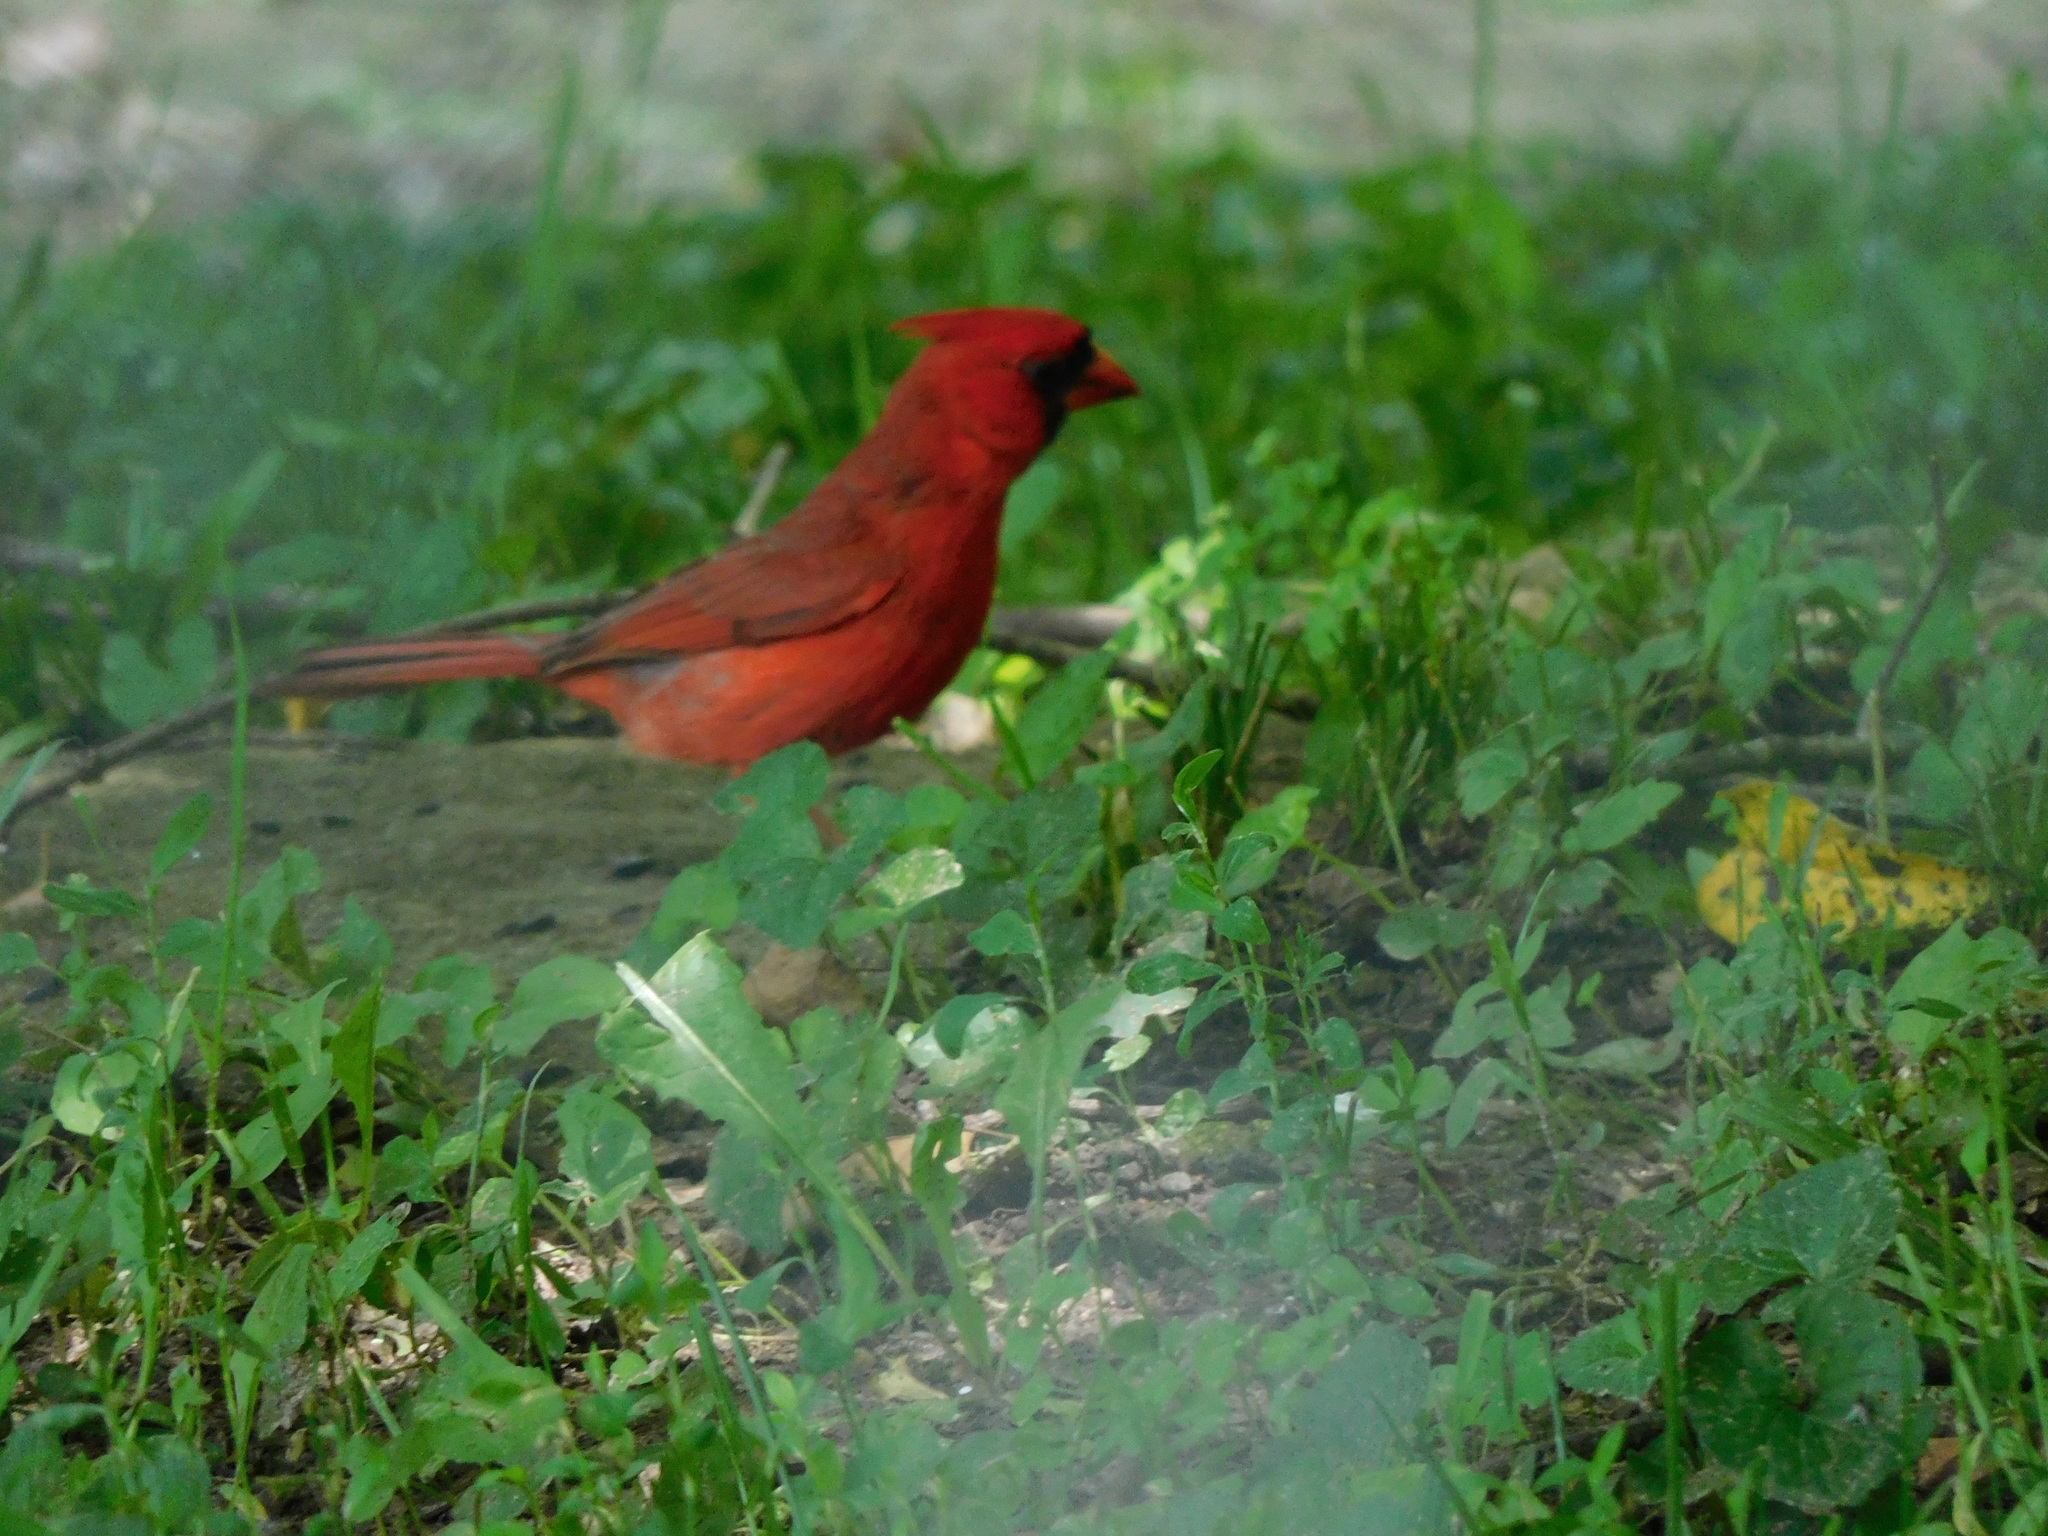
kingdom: Animalia
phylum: Chordata
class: Aves
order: Passeriformes
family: Cardinalidae
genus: Cardinalis
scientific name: Cardinalis cardinalis
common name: Northern cardinal
